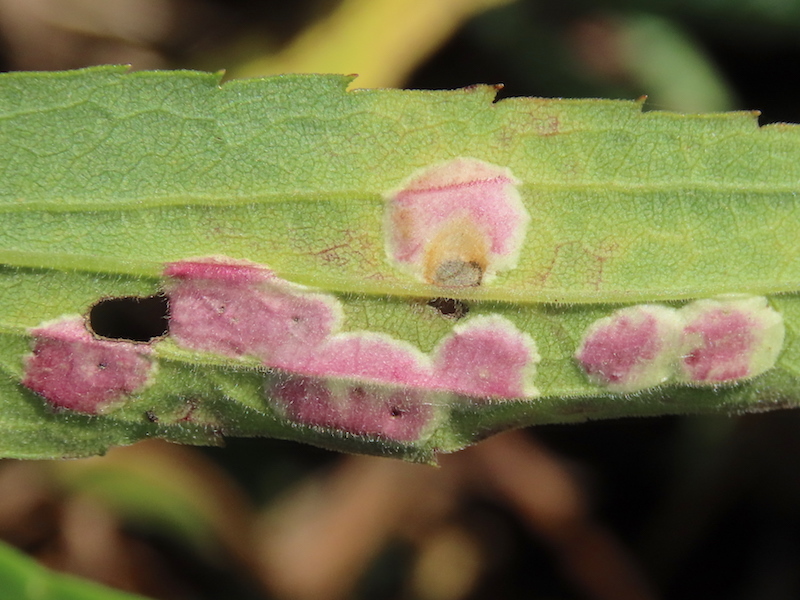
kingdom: Animalia
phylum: Arthropoda
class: Insecta
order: Diptera
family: Cecidomyiidae
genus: Asteromyia
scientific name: Asteromyia carbonifera
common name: Carbonifera goldenrod gall midge
